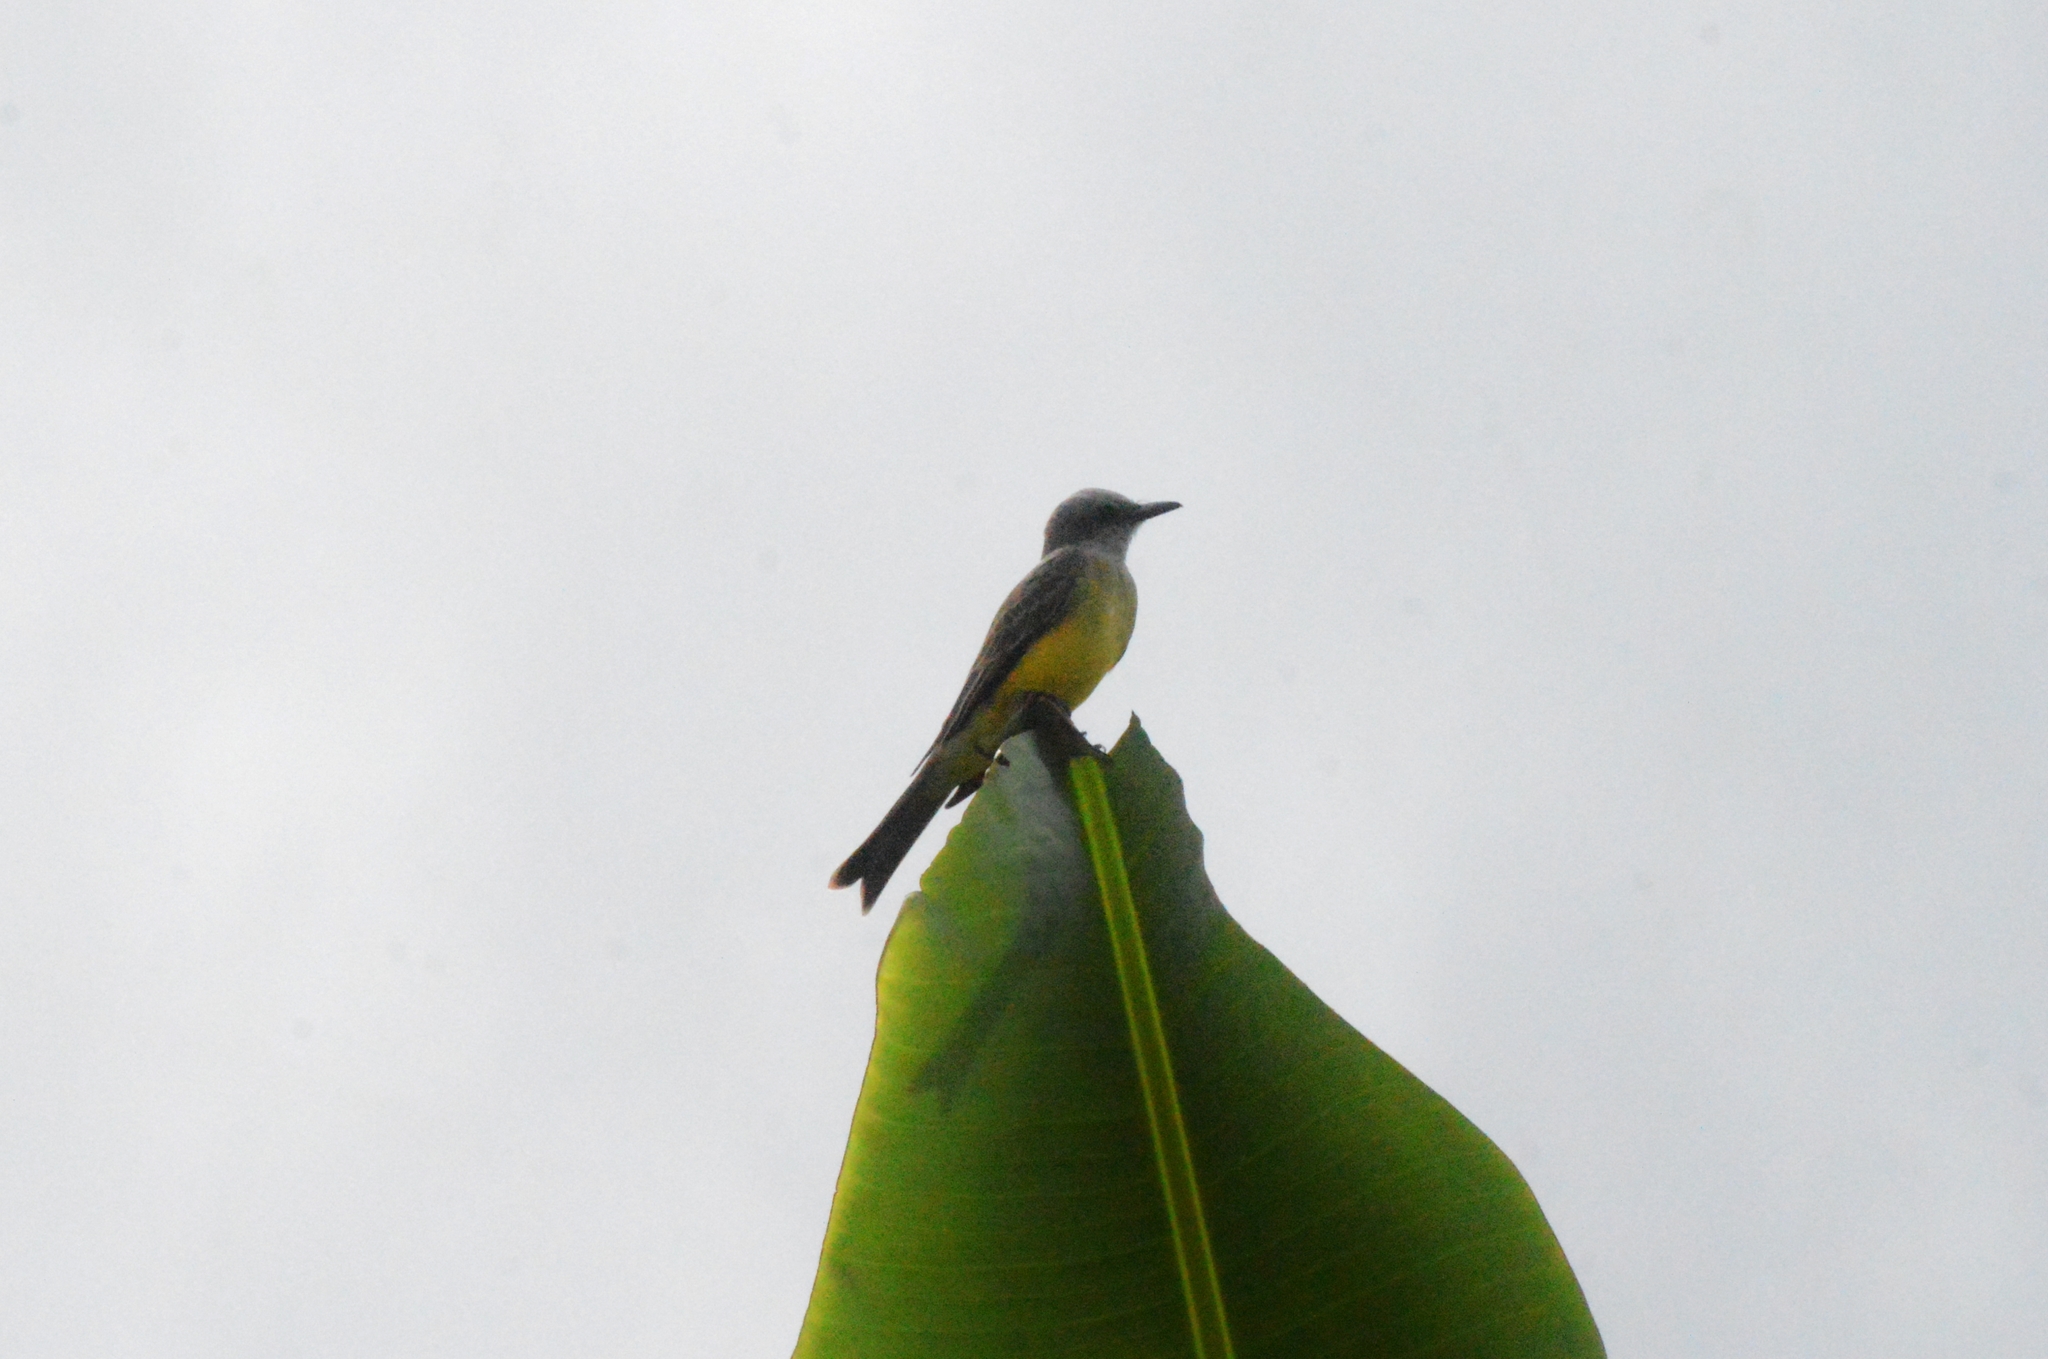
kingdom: Animalia
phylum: Chordata
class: Aves
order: Passeriformes
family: Tyrannidae
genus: Tyrannus
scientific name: Tyrannus melancholicus
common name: Tropical kingbird
